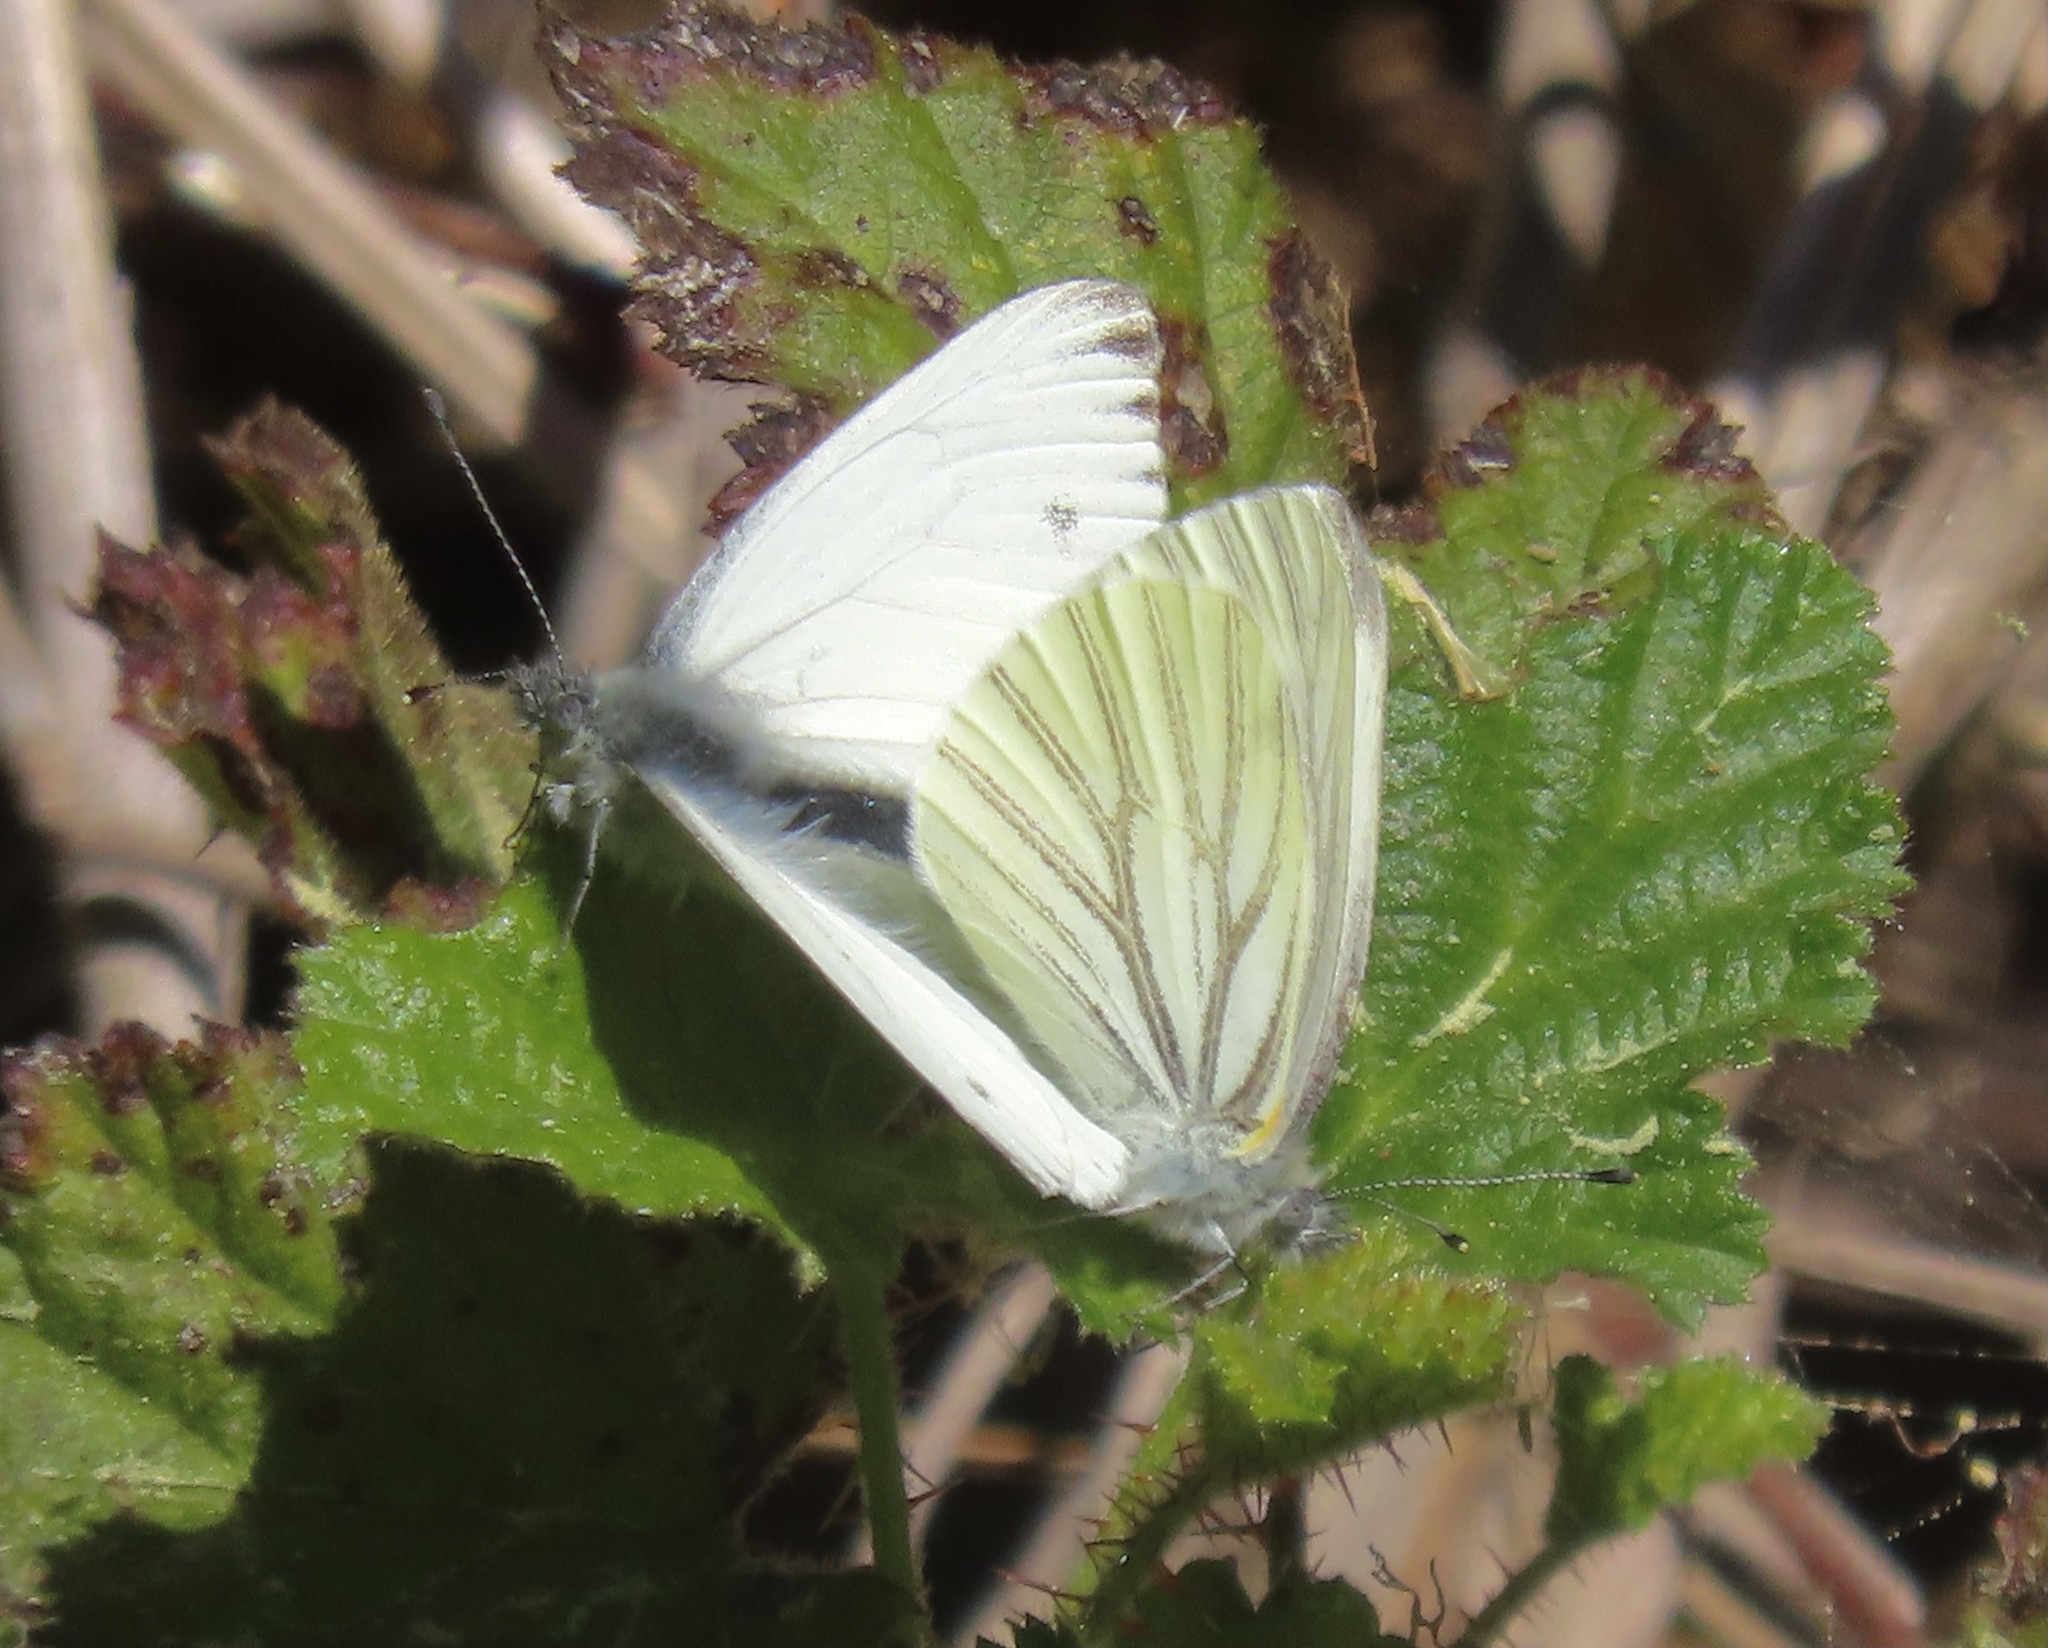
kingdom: Animalia
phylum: Arthropoda
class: Insecta
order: Lepidoptera
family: Pieridae
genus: Pieris
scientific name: Pieris marginalis
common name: Margined white
